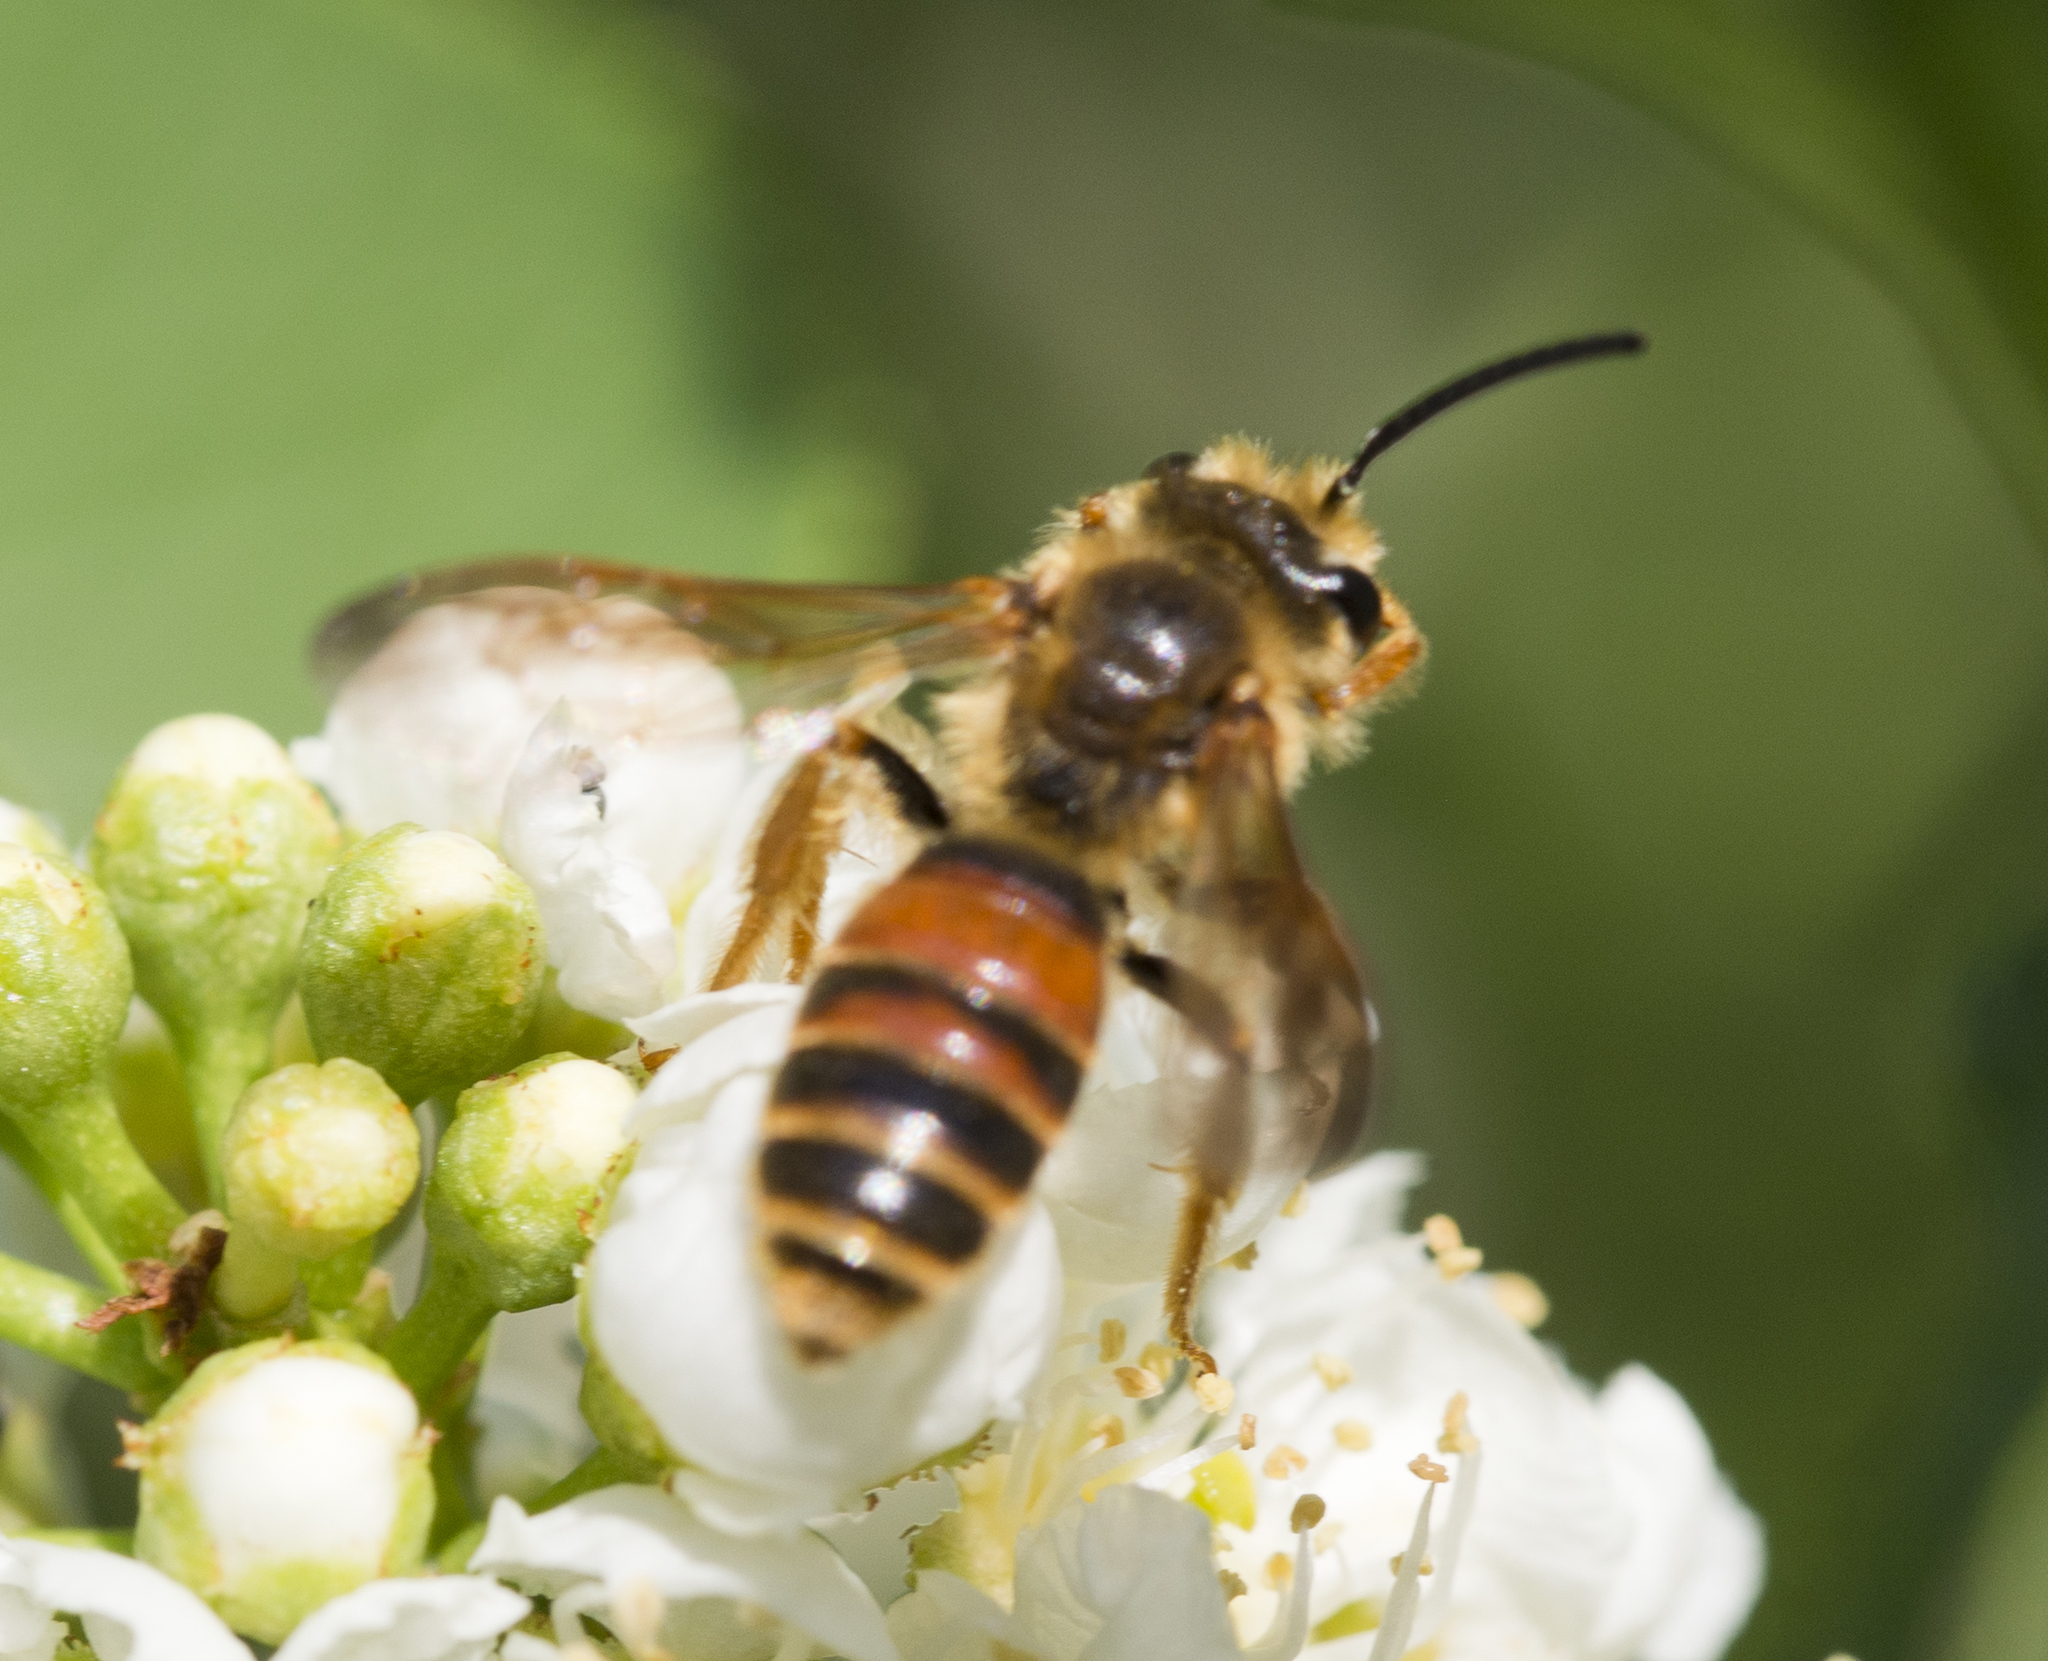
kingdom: Animalia
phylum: Arthropoda
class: Insecta
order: Hymenoptera
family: Andrenidae
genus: Andrena
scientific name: Andrena prunorum
